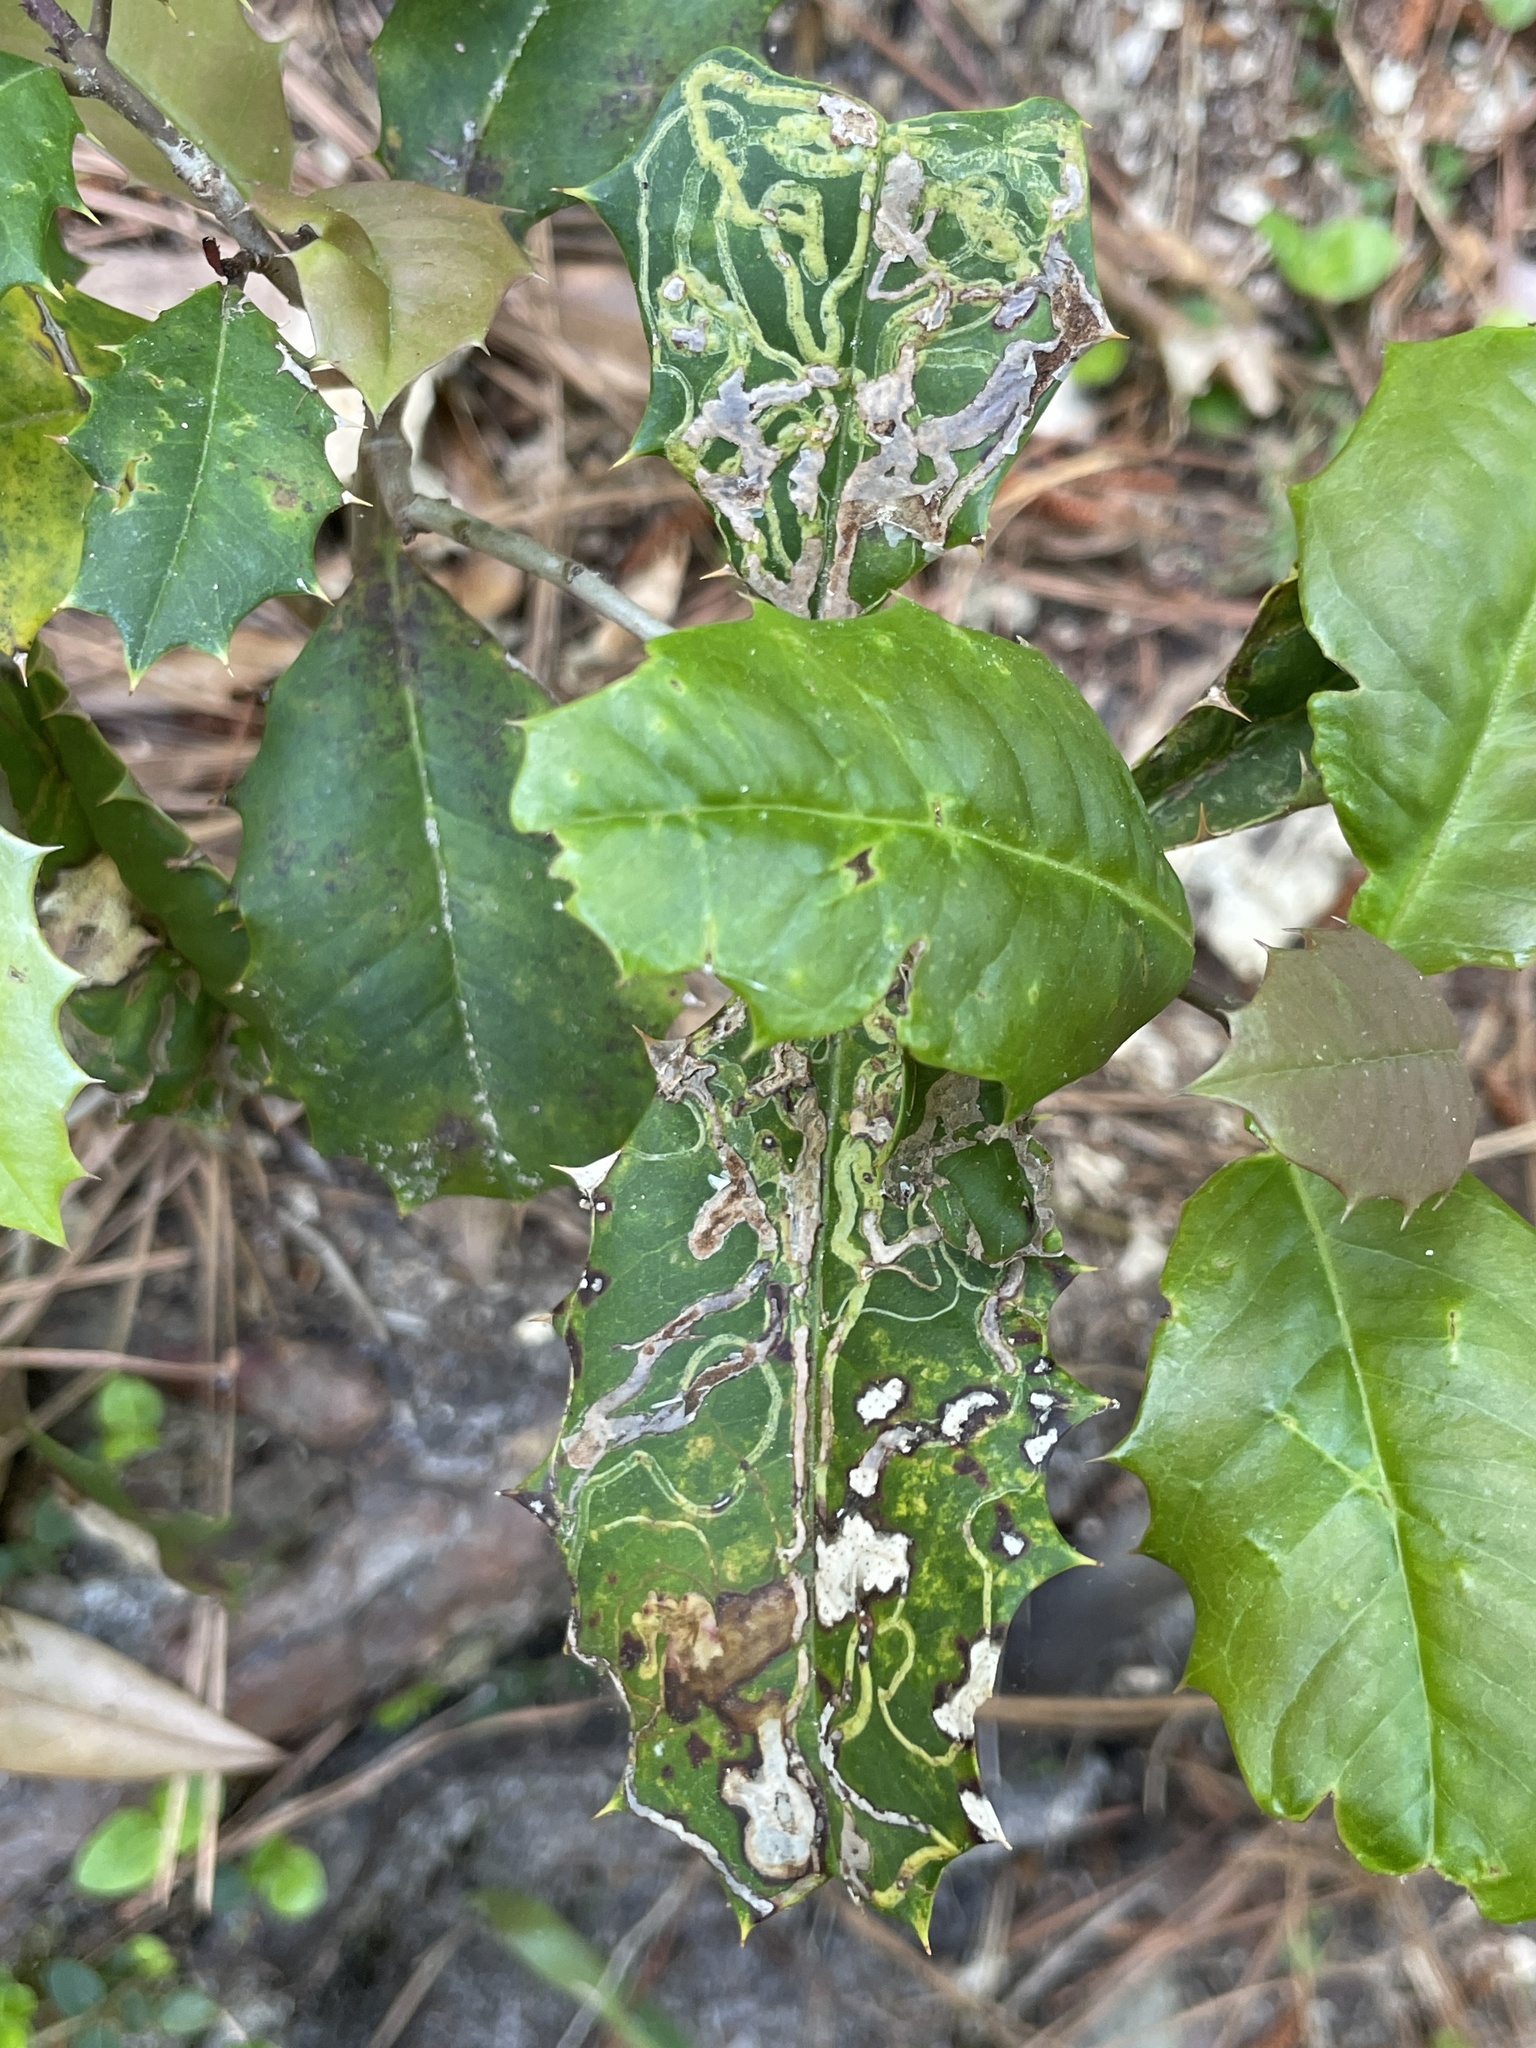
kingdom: Animalia
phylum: Arthropoda
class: Insecta
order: Diptera
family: Agromyzidae
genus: Phytomyza
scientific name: Phytomyza opacae
